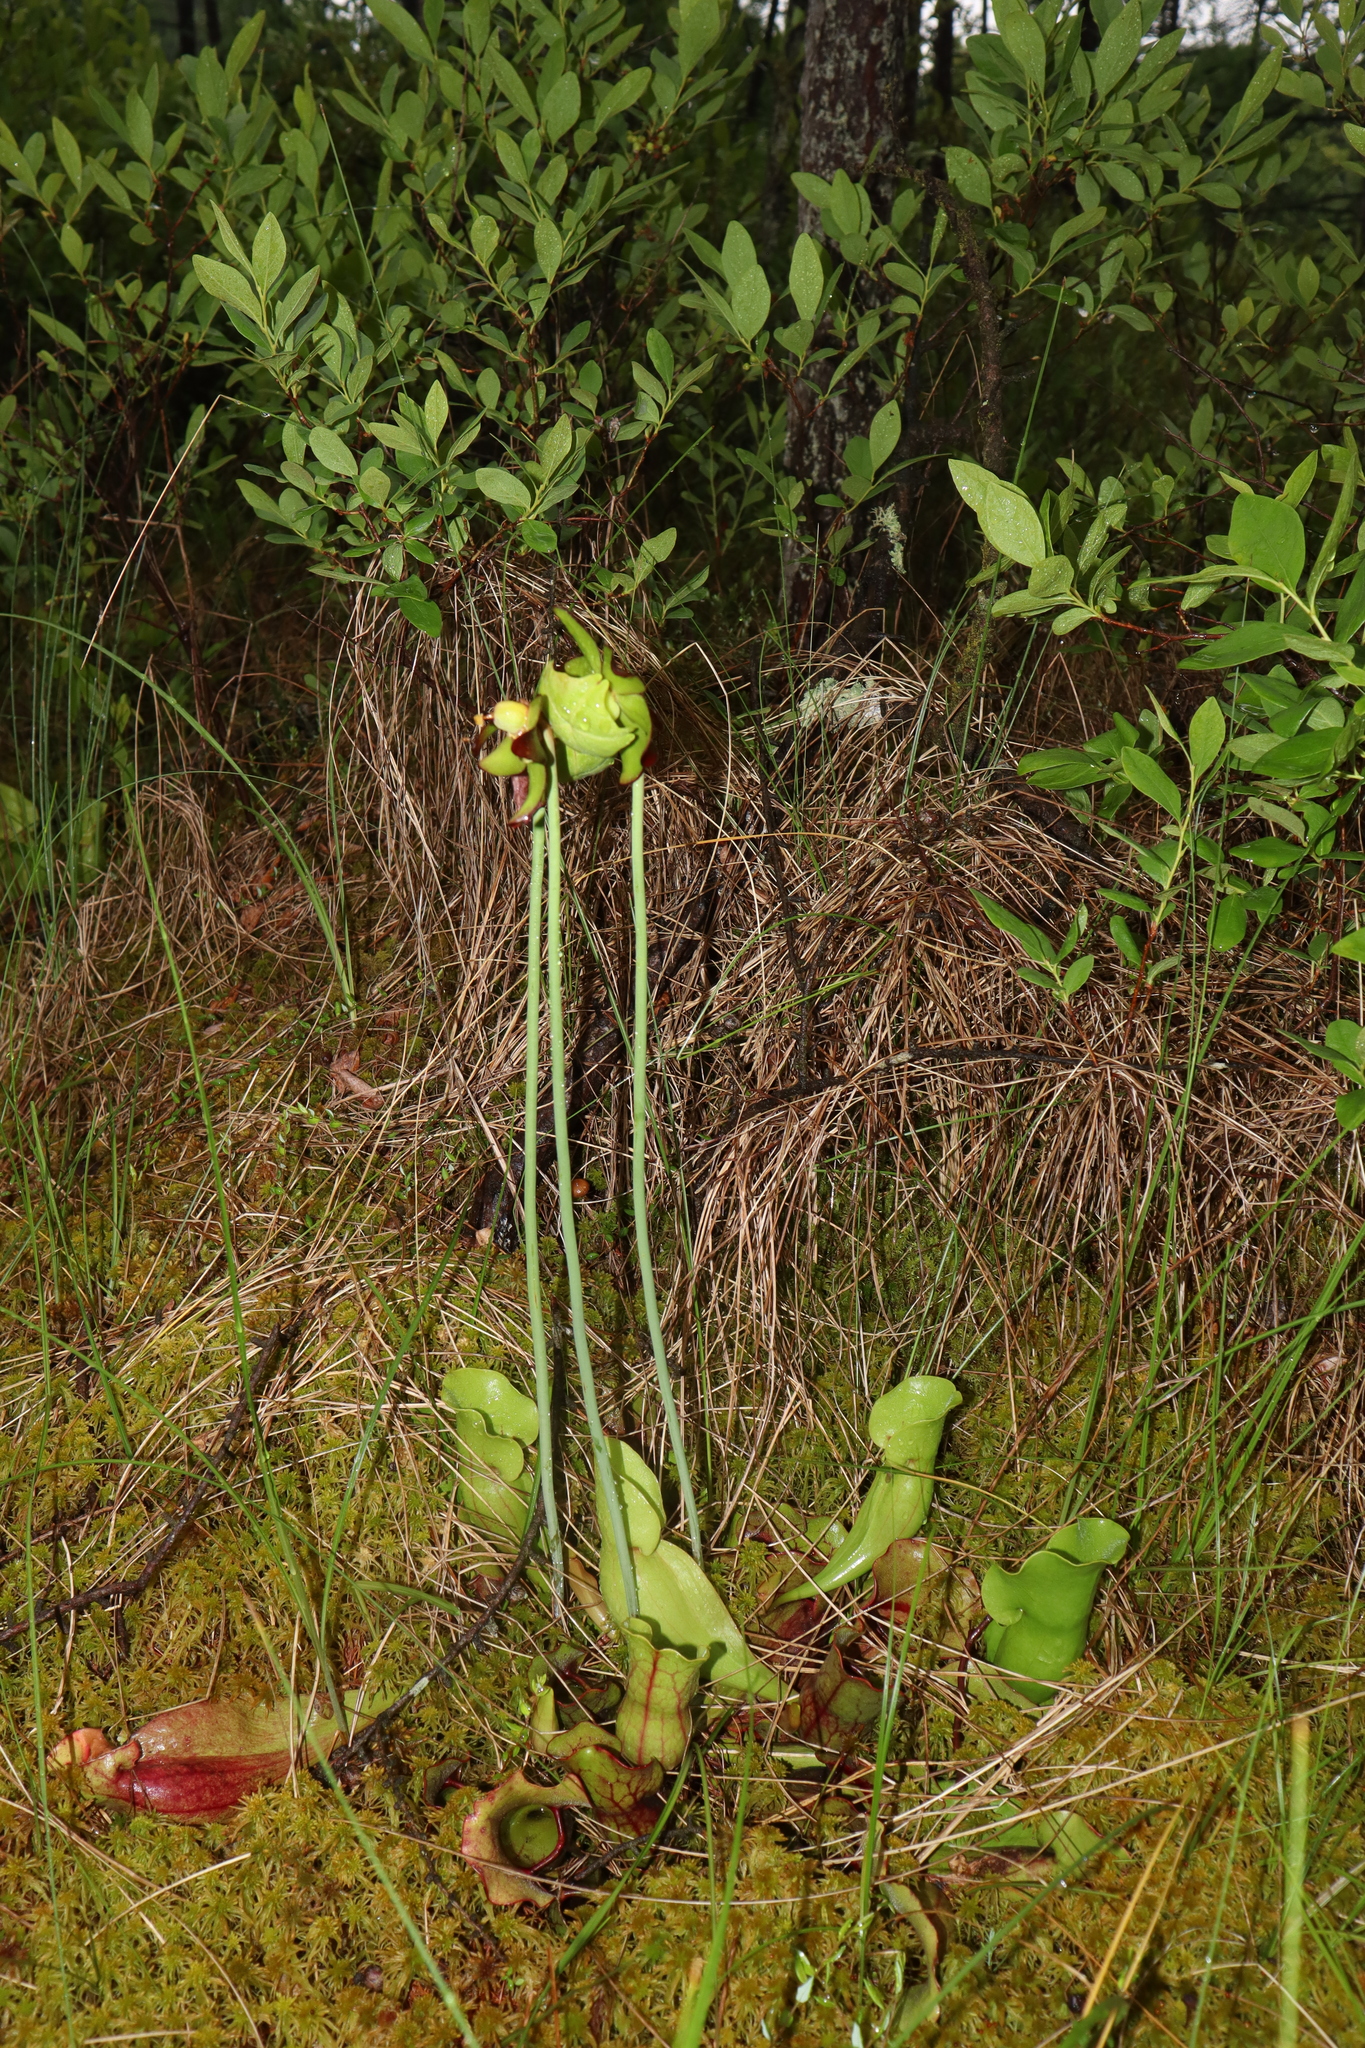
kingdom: Plantae
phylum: Tracheophyta
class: Magnoliopsida
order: Ericales
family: Sarraceniaceae
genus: Sarracenia
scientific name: Sarracenia purpurea
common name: Pitcherplant
